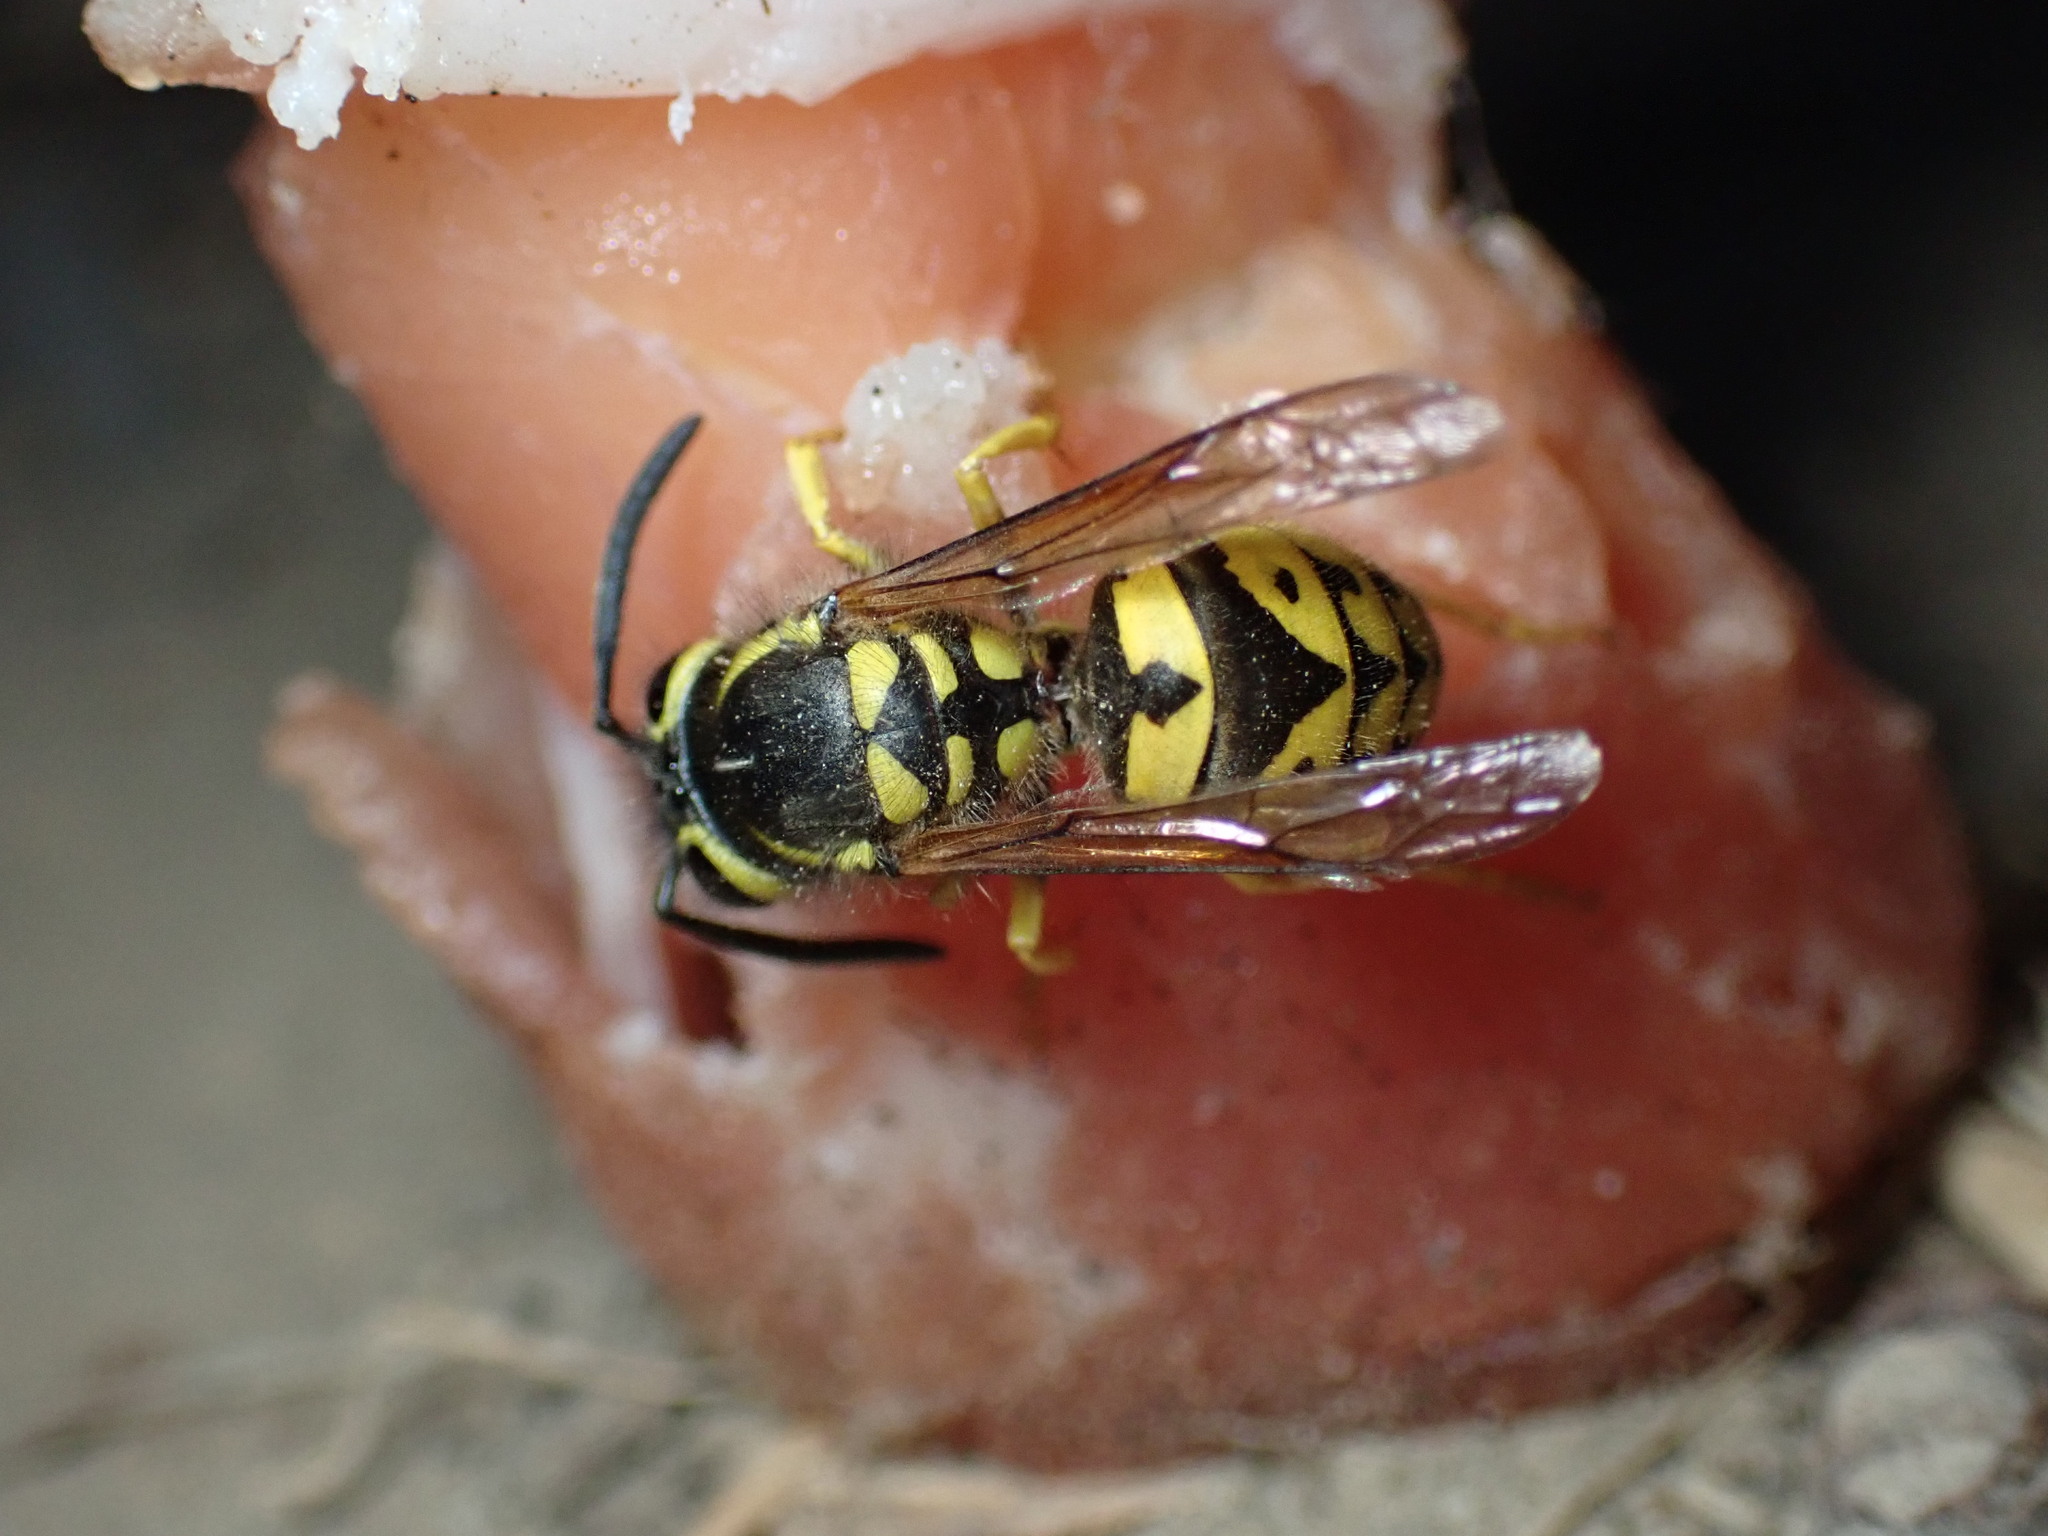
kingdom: Animalia
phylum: Arthropoda
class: Insecta
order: Hymenoptera
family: Vespidae
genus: Vespula
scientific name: Vespula pensylvanica
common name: Western yellowjacket
